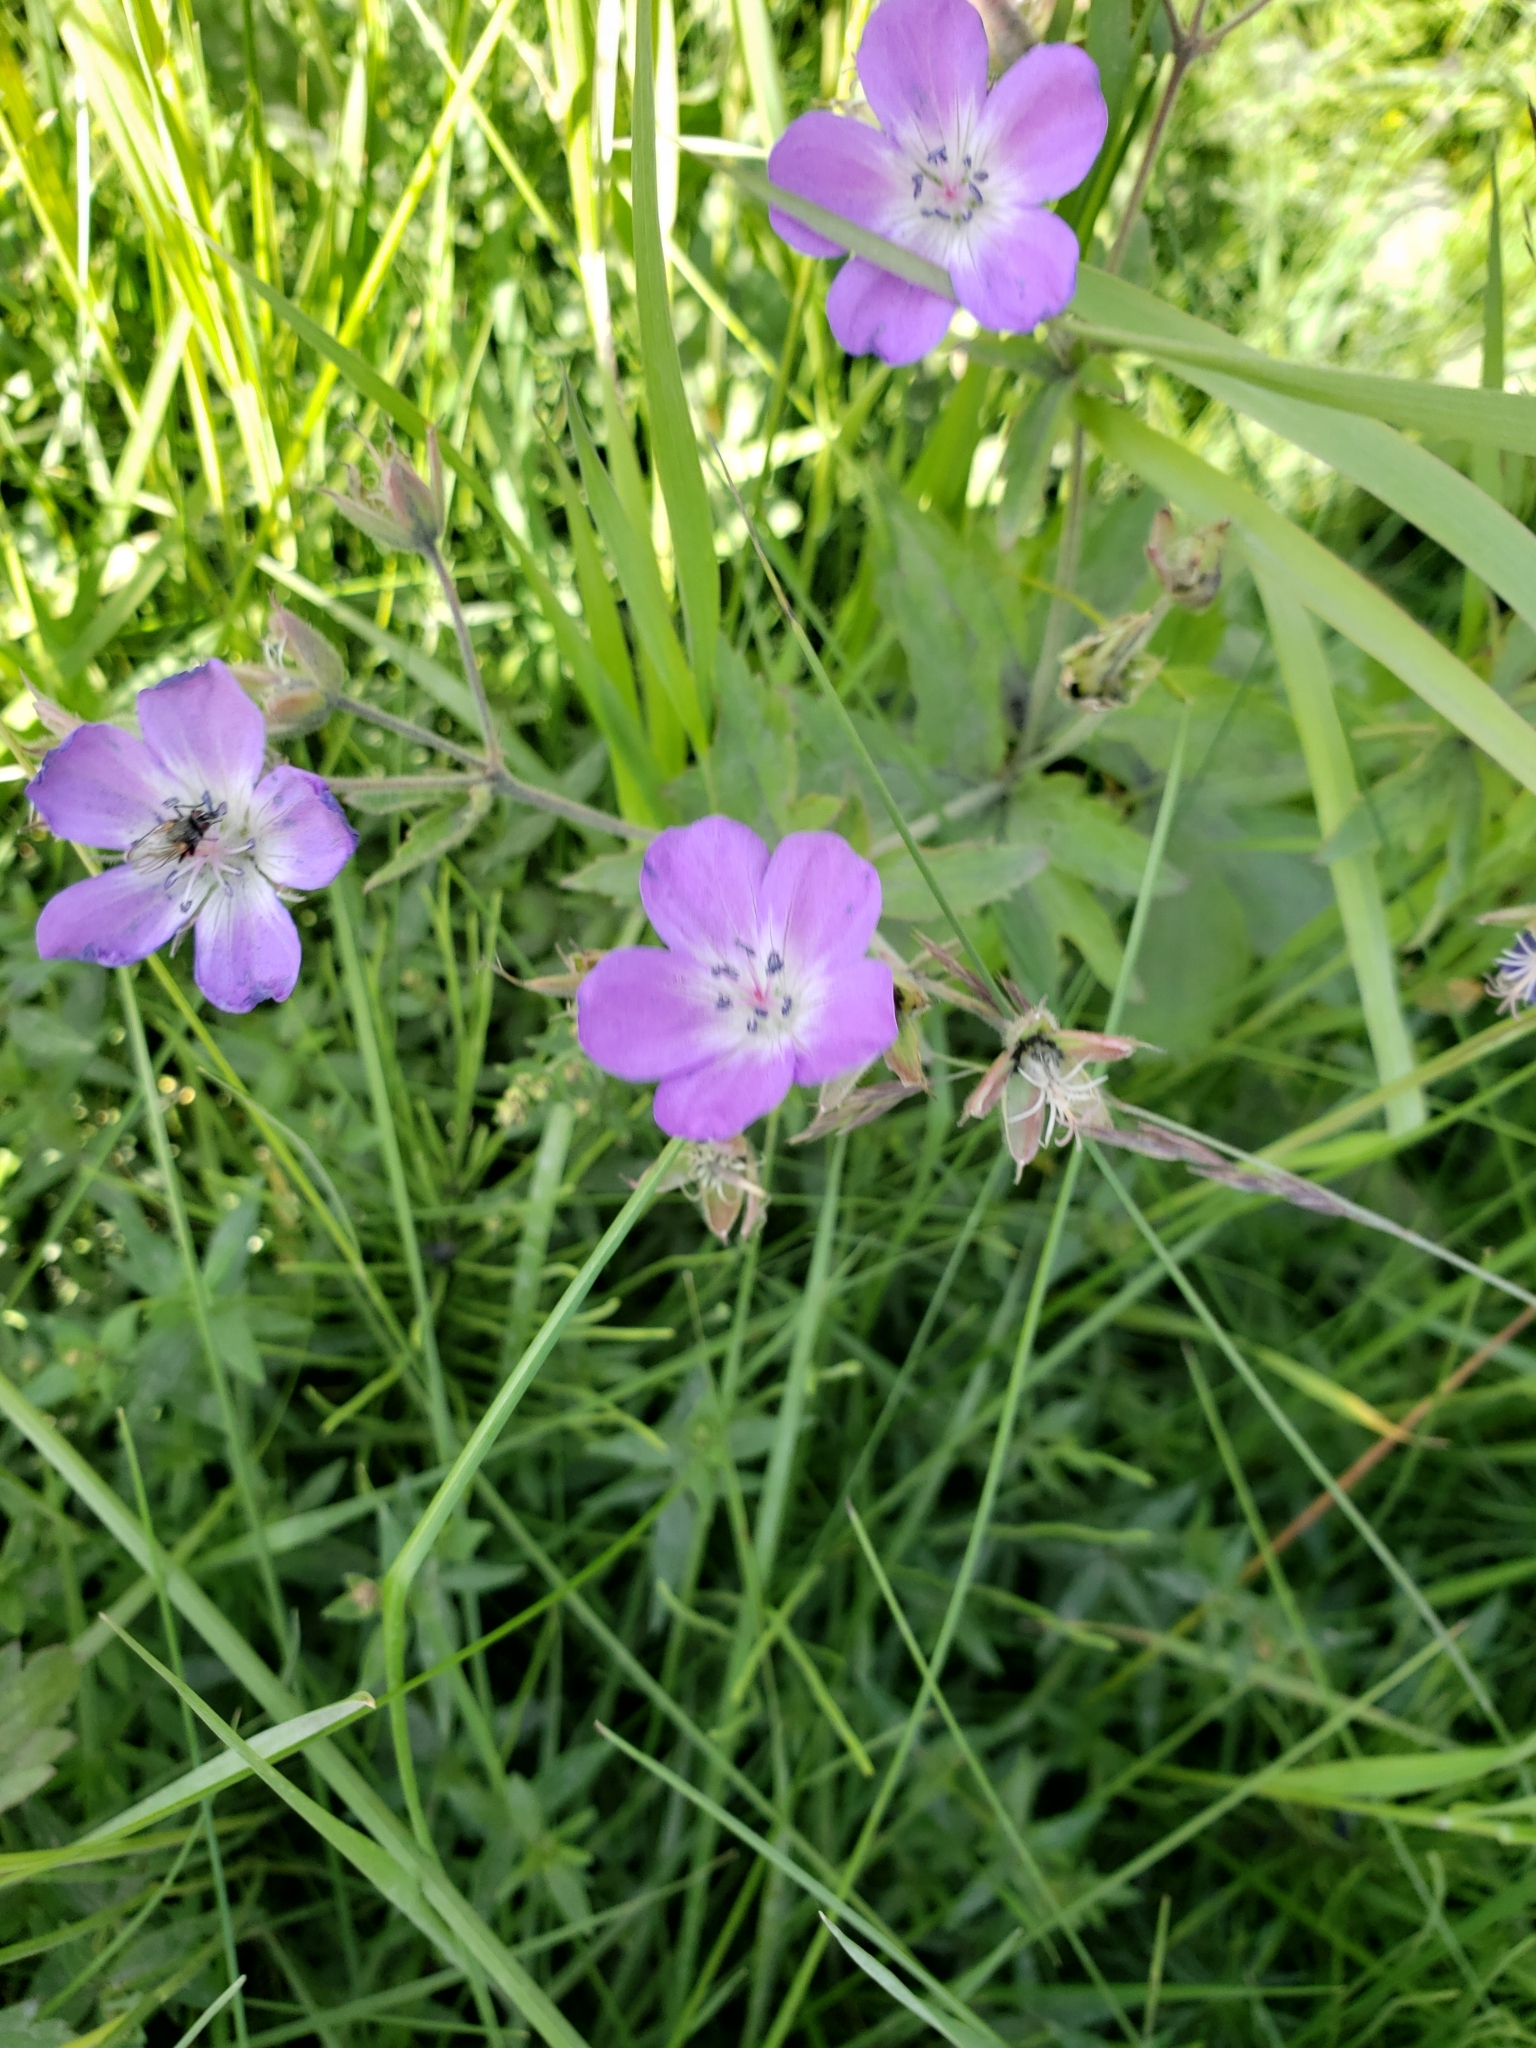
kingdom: Plantae
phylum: Tracheophyta
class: Magnoliopsida
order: Geraniales
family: Geraniaceae
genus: Geranium
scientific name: Geranium sylvaticum
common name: Wood crane's-bill
